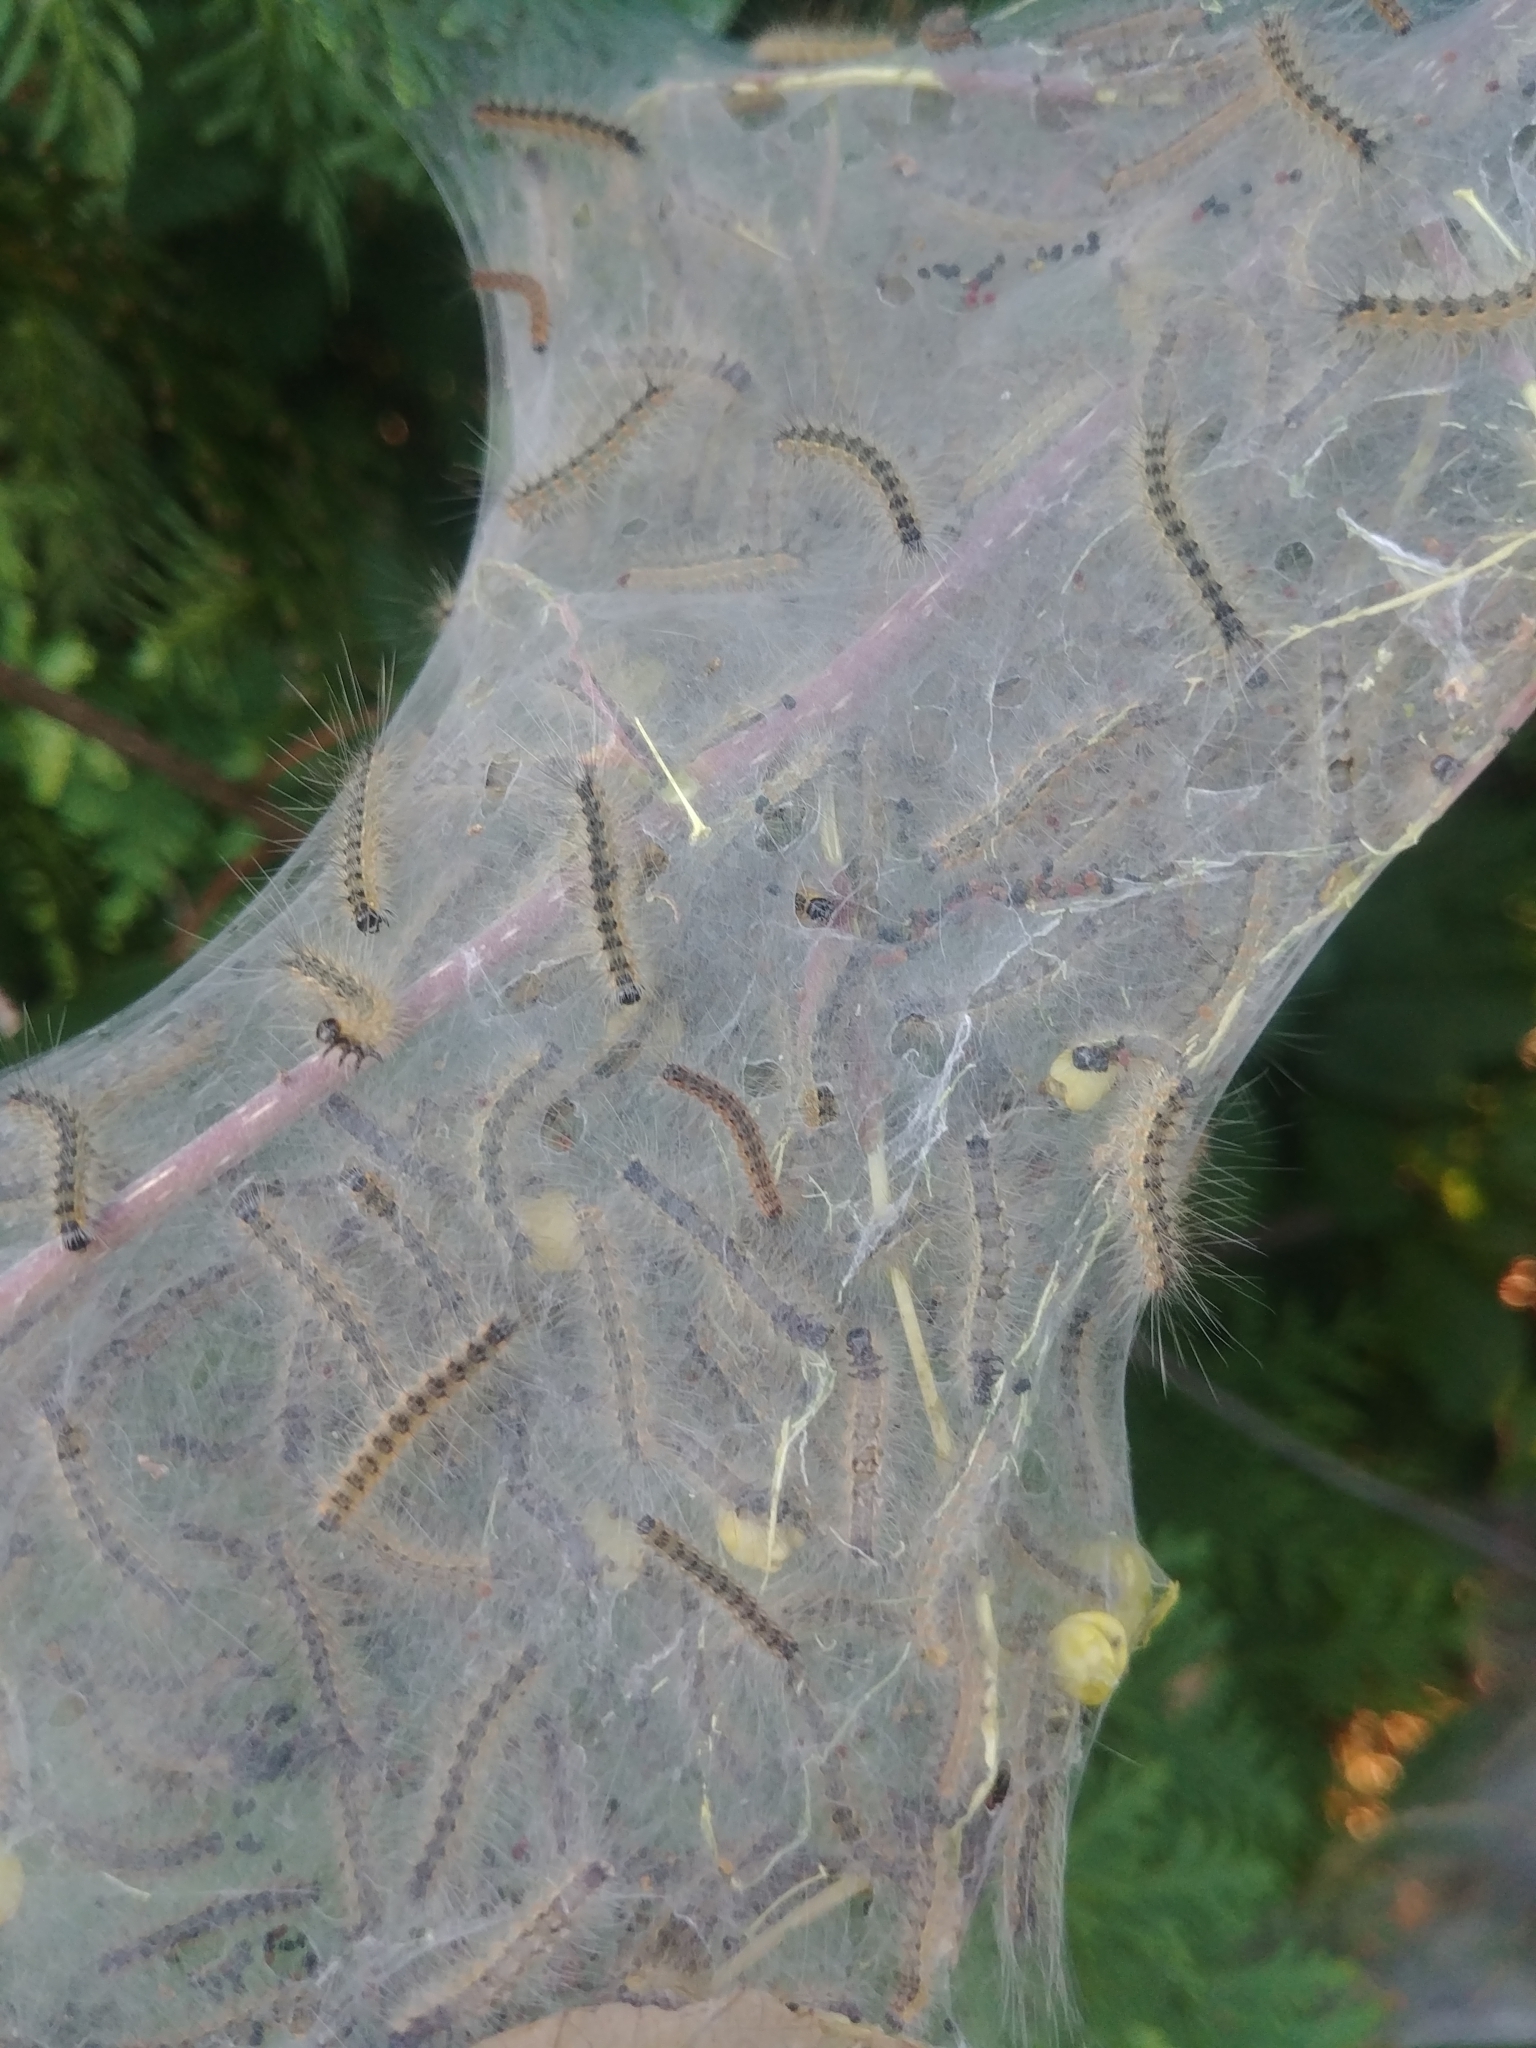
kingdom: Animalia
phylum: Arthropoda
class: Insecta
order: Lepidoptera
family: Erebidae
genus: Hyphantria
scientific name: Hyphantria cunea
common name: American white moth
